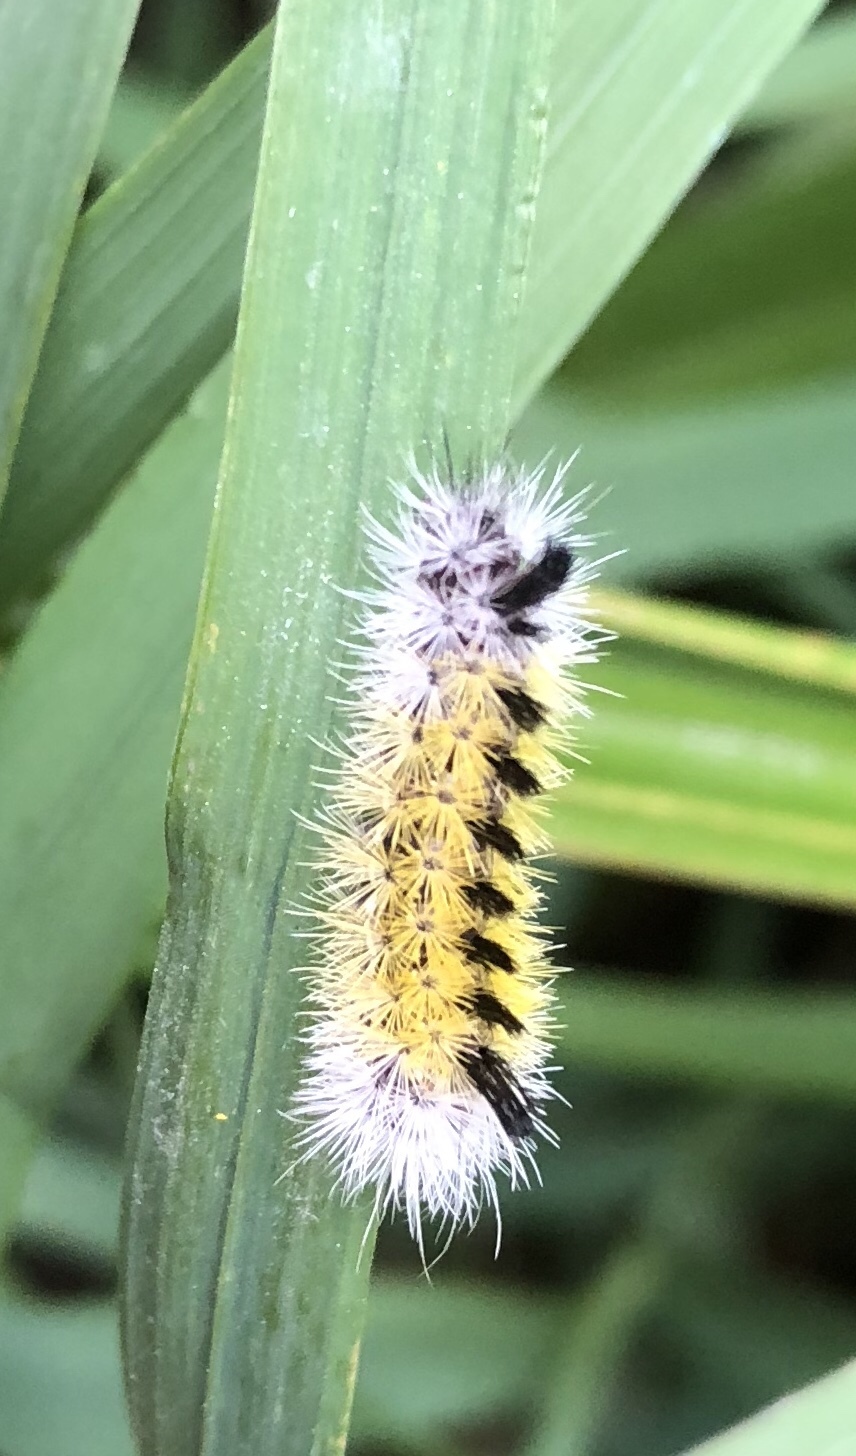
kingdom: Animalia
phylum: Arthropoda
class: Insecta
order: Lepidoptera
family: Erebidae
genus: Ctenucha
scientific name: Ctenucha virginica
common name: Virginia ctenucha moth
